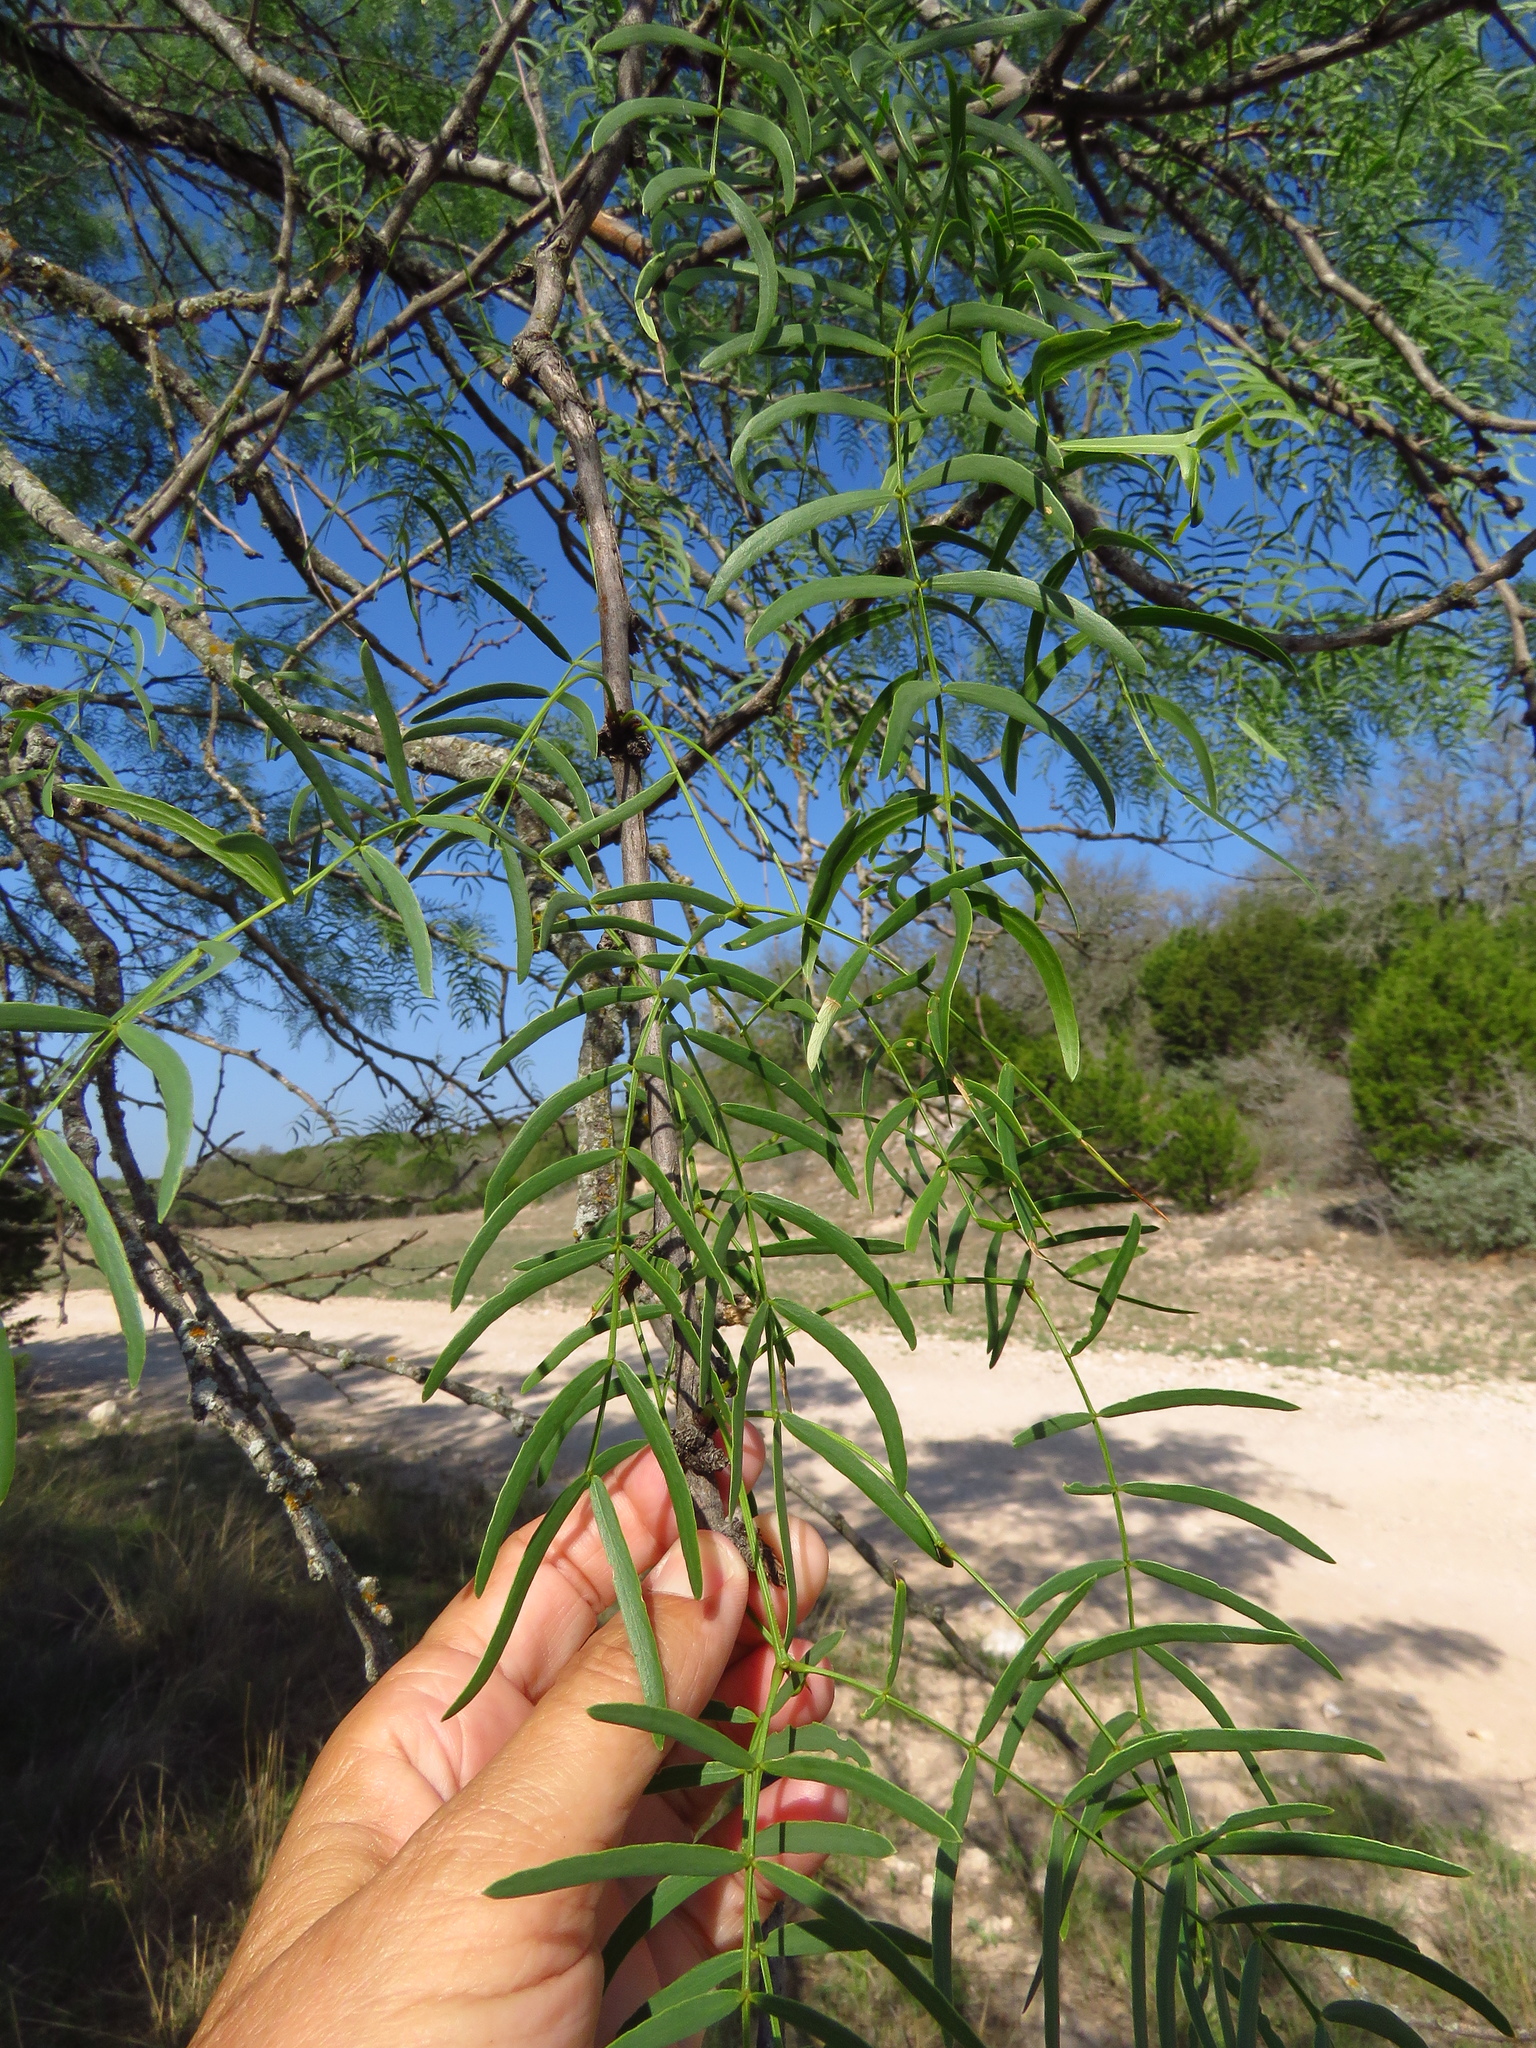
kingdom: Plantae
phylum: Tracheophyta
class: Magnoliopsida
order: Fabales
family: Fabaceae
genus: Prosopis
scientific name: Prosopis glandulosa
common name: Honey mesquite
